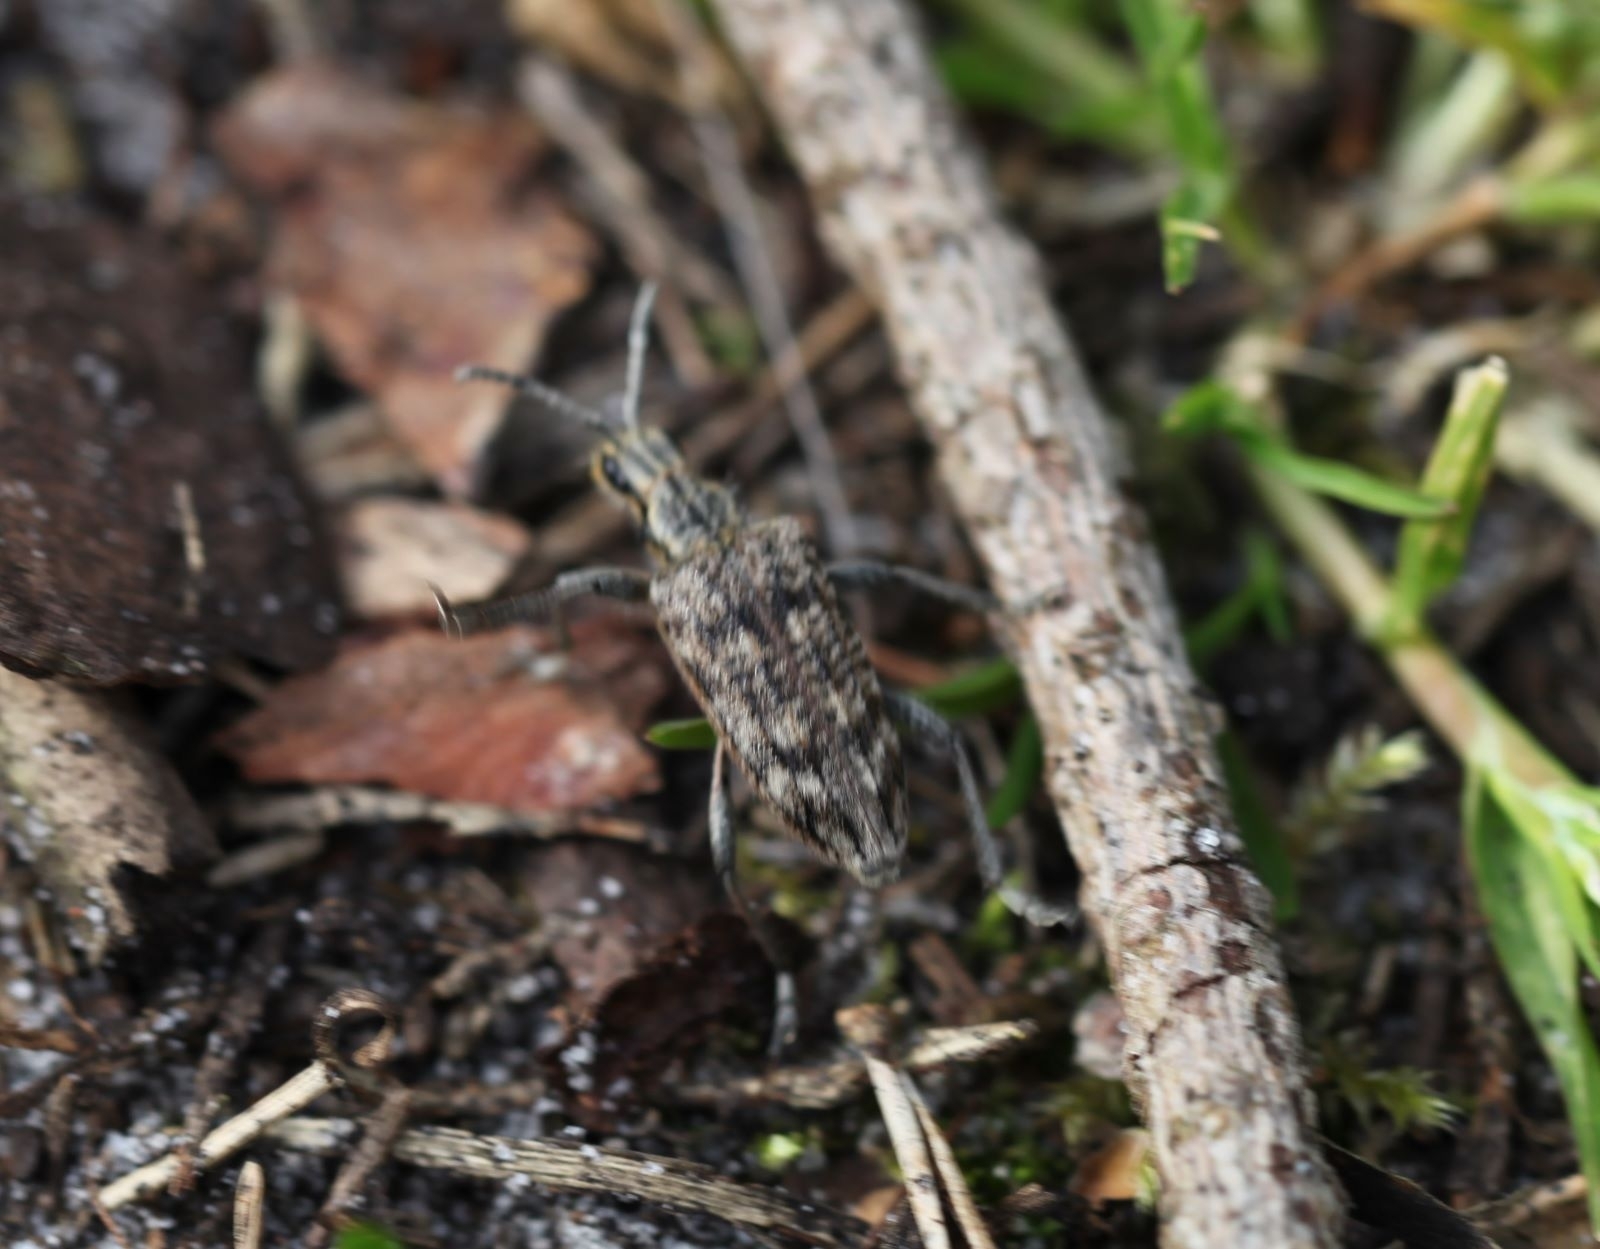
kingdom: Animalia
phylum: Arthropoda
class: Insecta
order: Coleoptera
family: Cerambycidae
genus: Rhagium
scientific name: Rhagium inquisitor
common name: Ribbed pine borer
